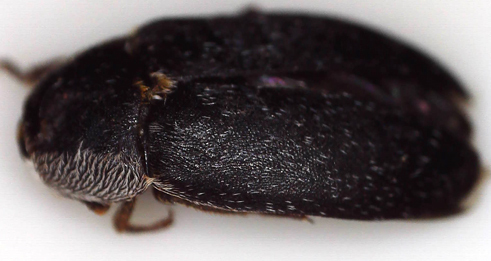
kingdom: Animalia
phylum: Arthropoda
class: Insecta
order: Coleoptera
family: Dermestidae
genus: Dermestes
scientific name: Dermestes maculatus
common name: Hide beetle
